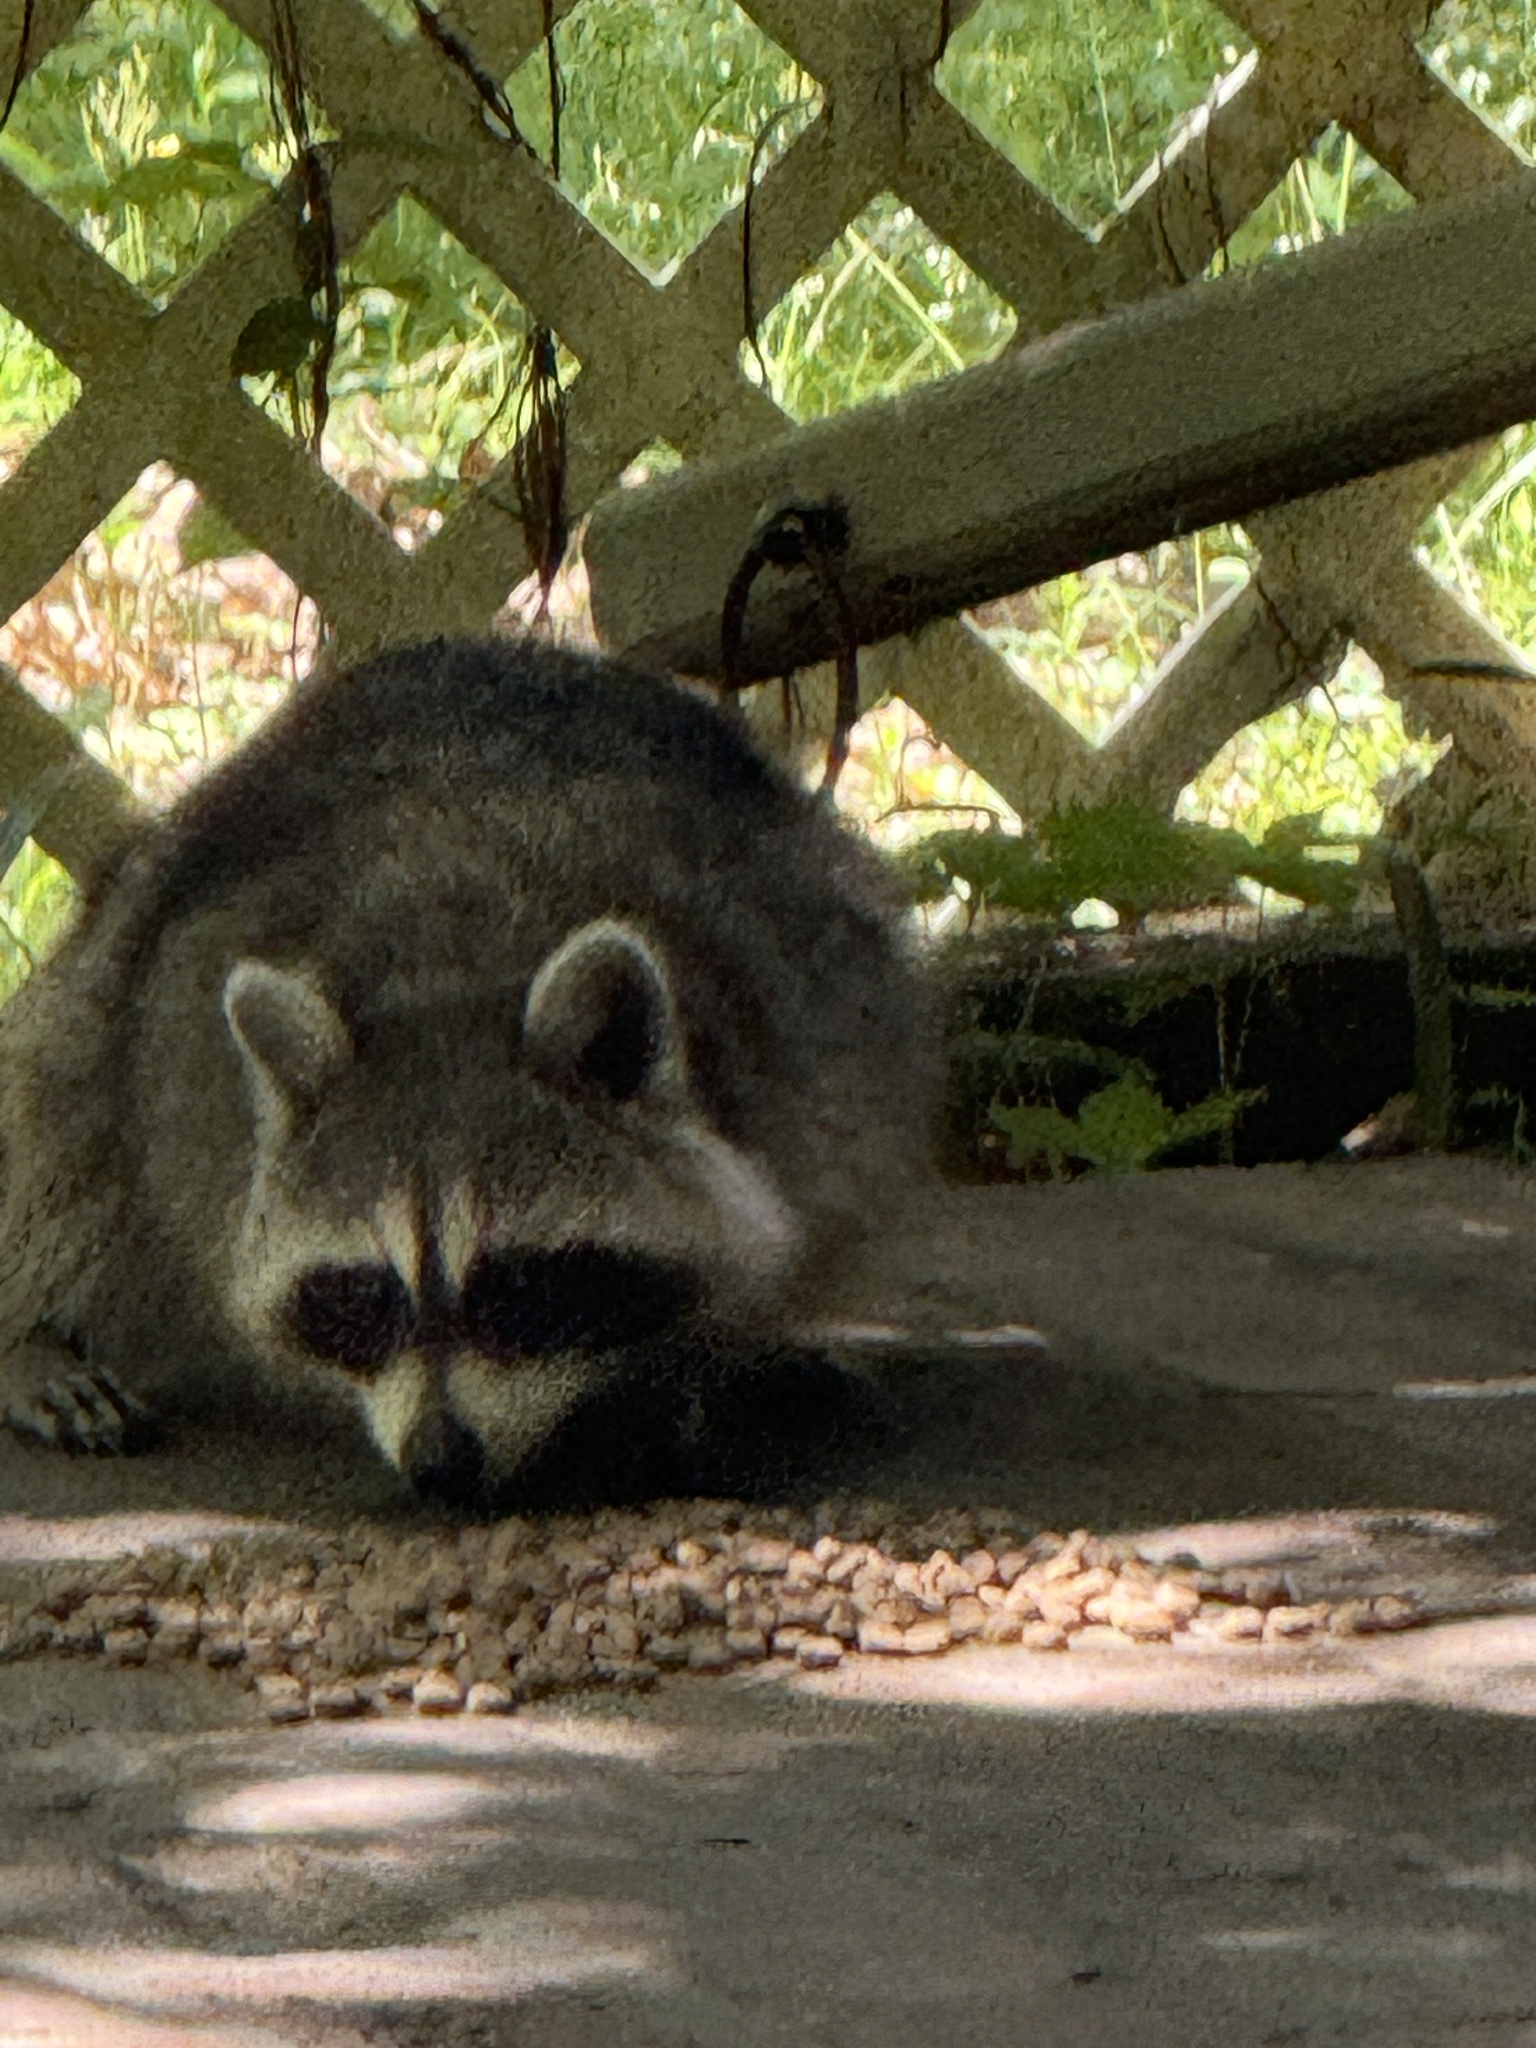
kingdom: Animalia
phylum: Chordata
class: Mammalia
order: Carnivora
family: Procyonidae
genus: Procyon
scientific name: Procyon lotor
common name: Raccoon
